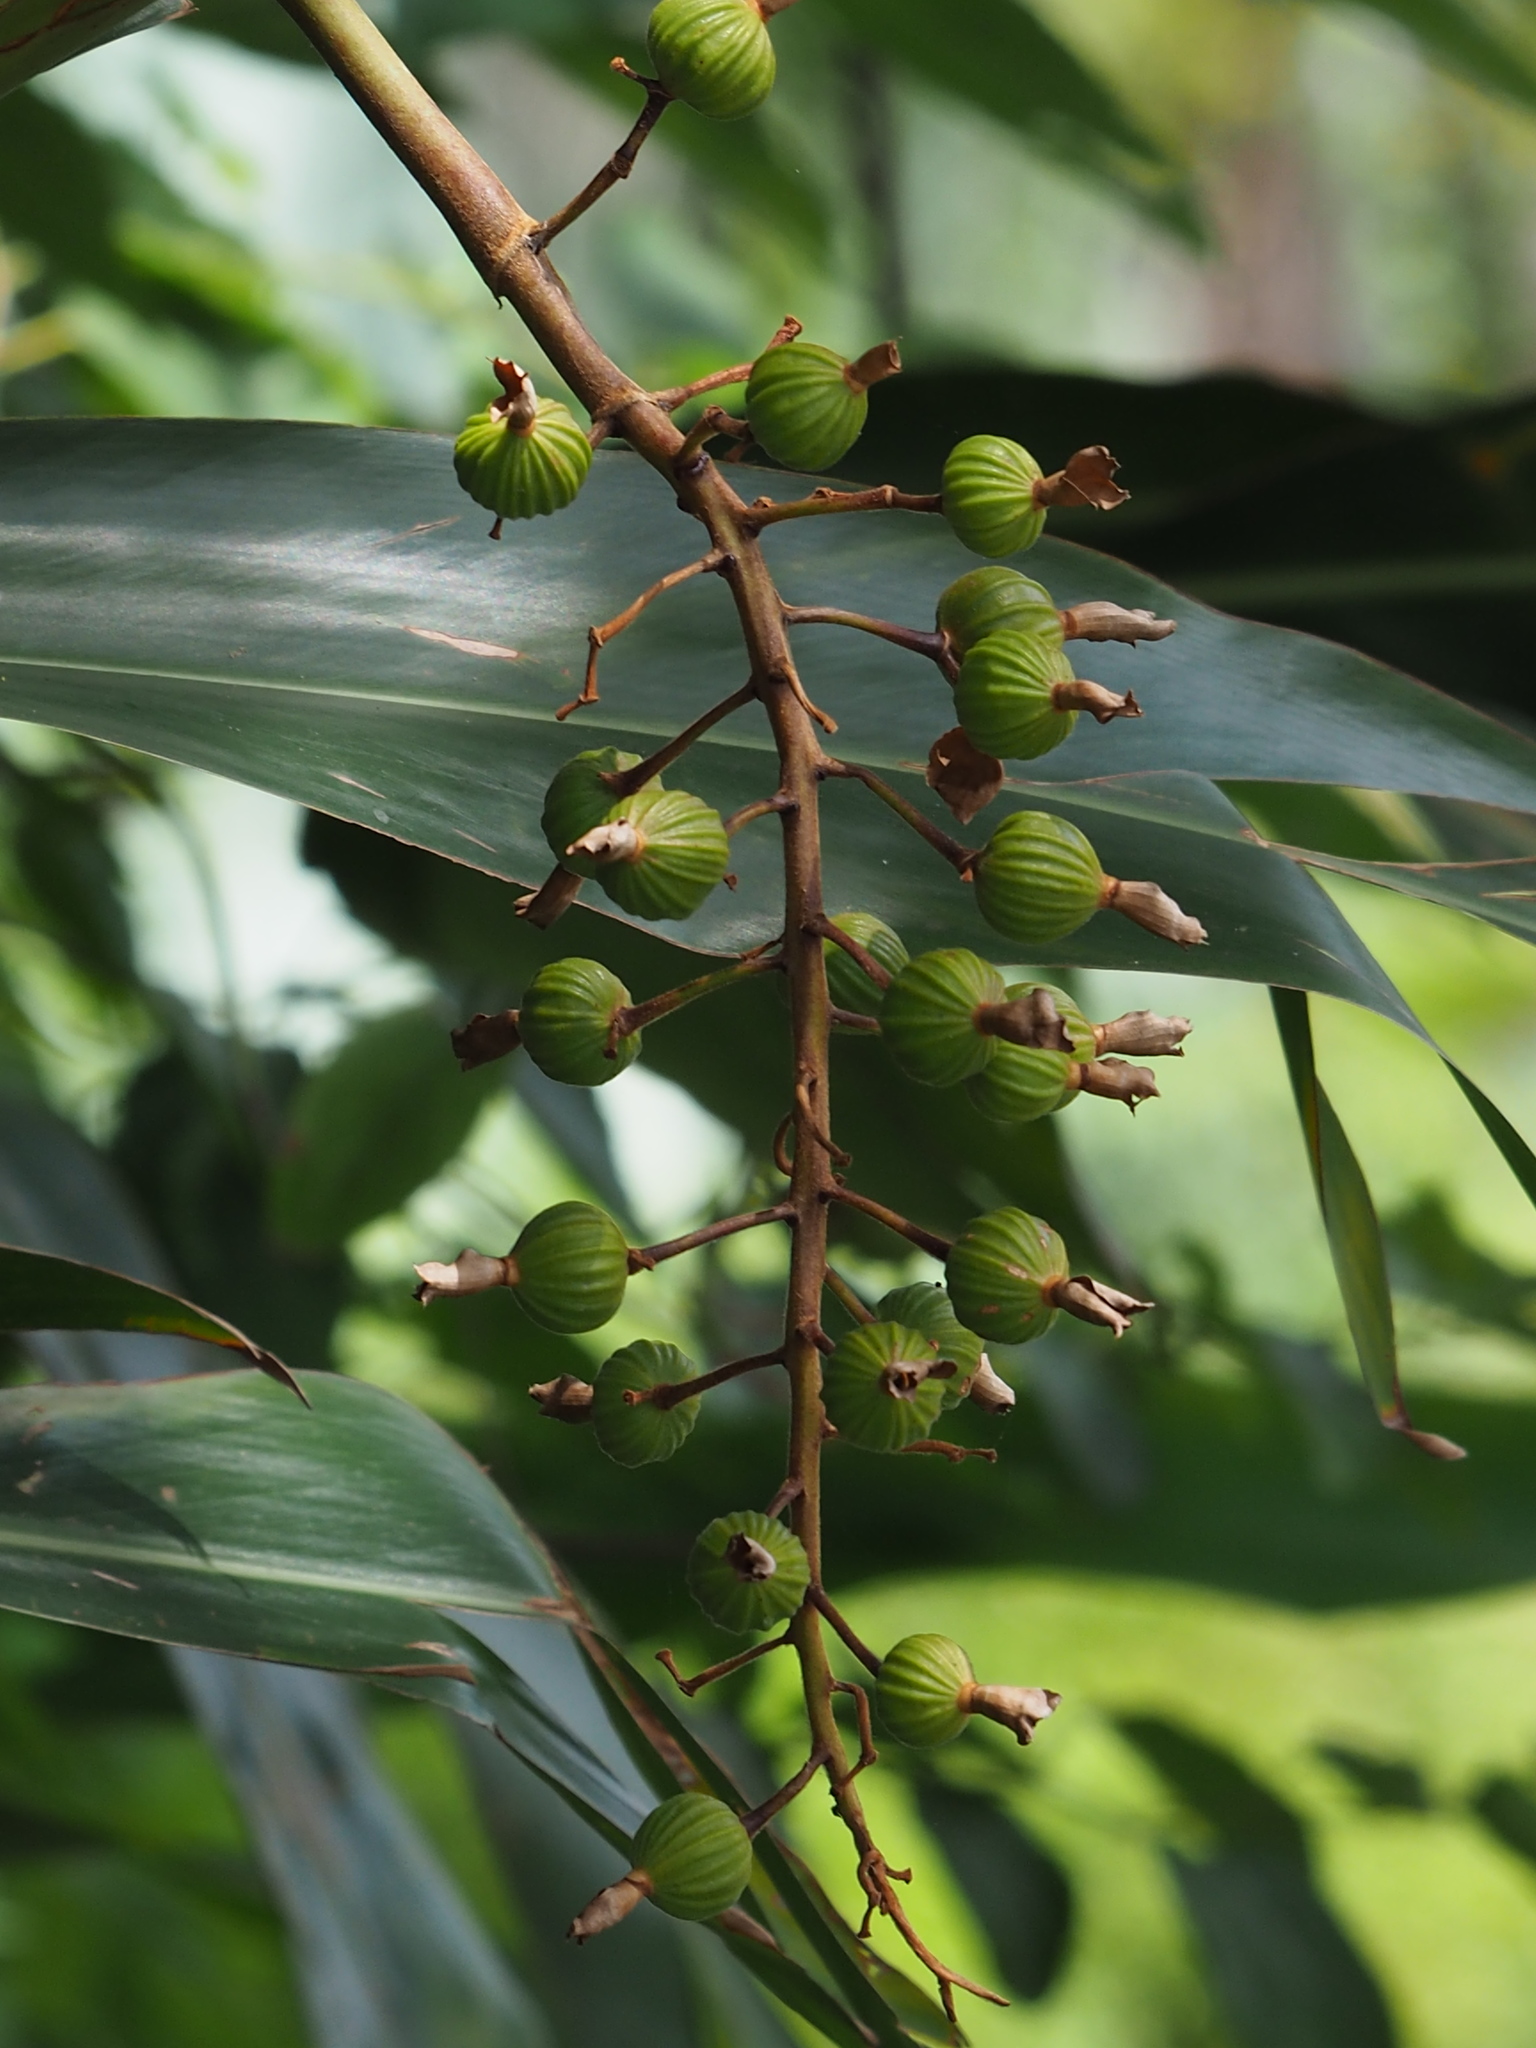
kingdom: Plantae
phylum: Tracheophyta
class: Liliopsida
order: Zingiberales
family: Zingiberaceae
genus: Alpinia
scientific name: Alpinia zerumbet
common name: Shellplant
